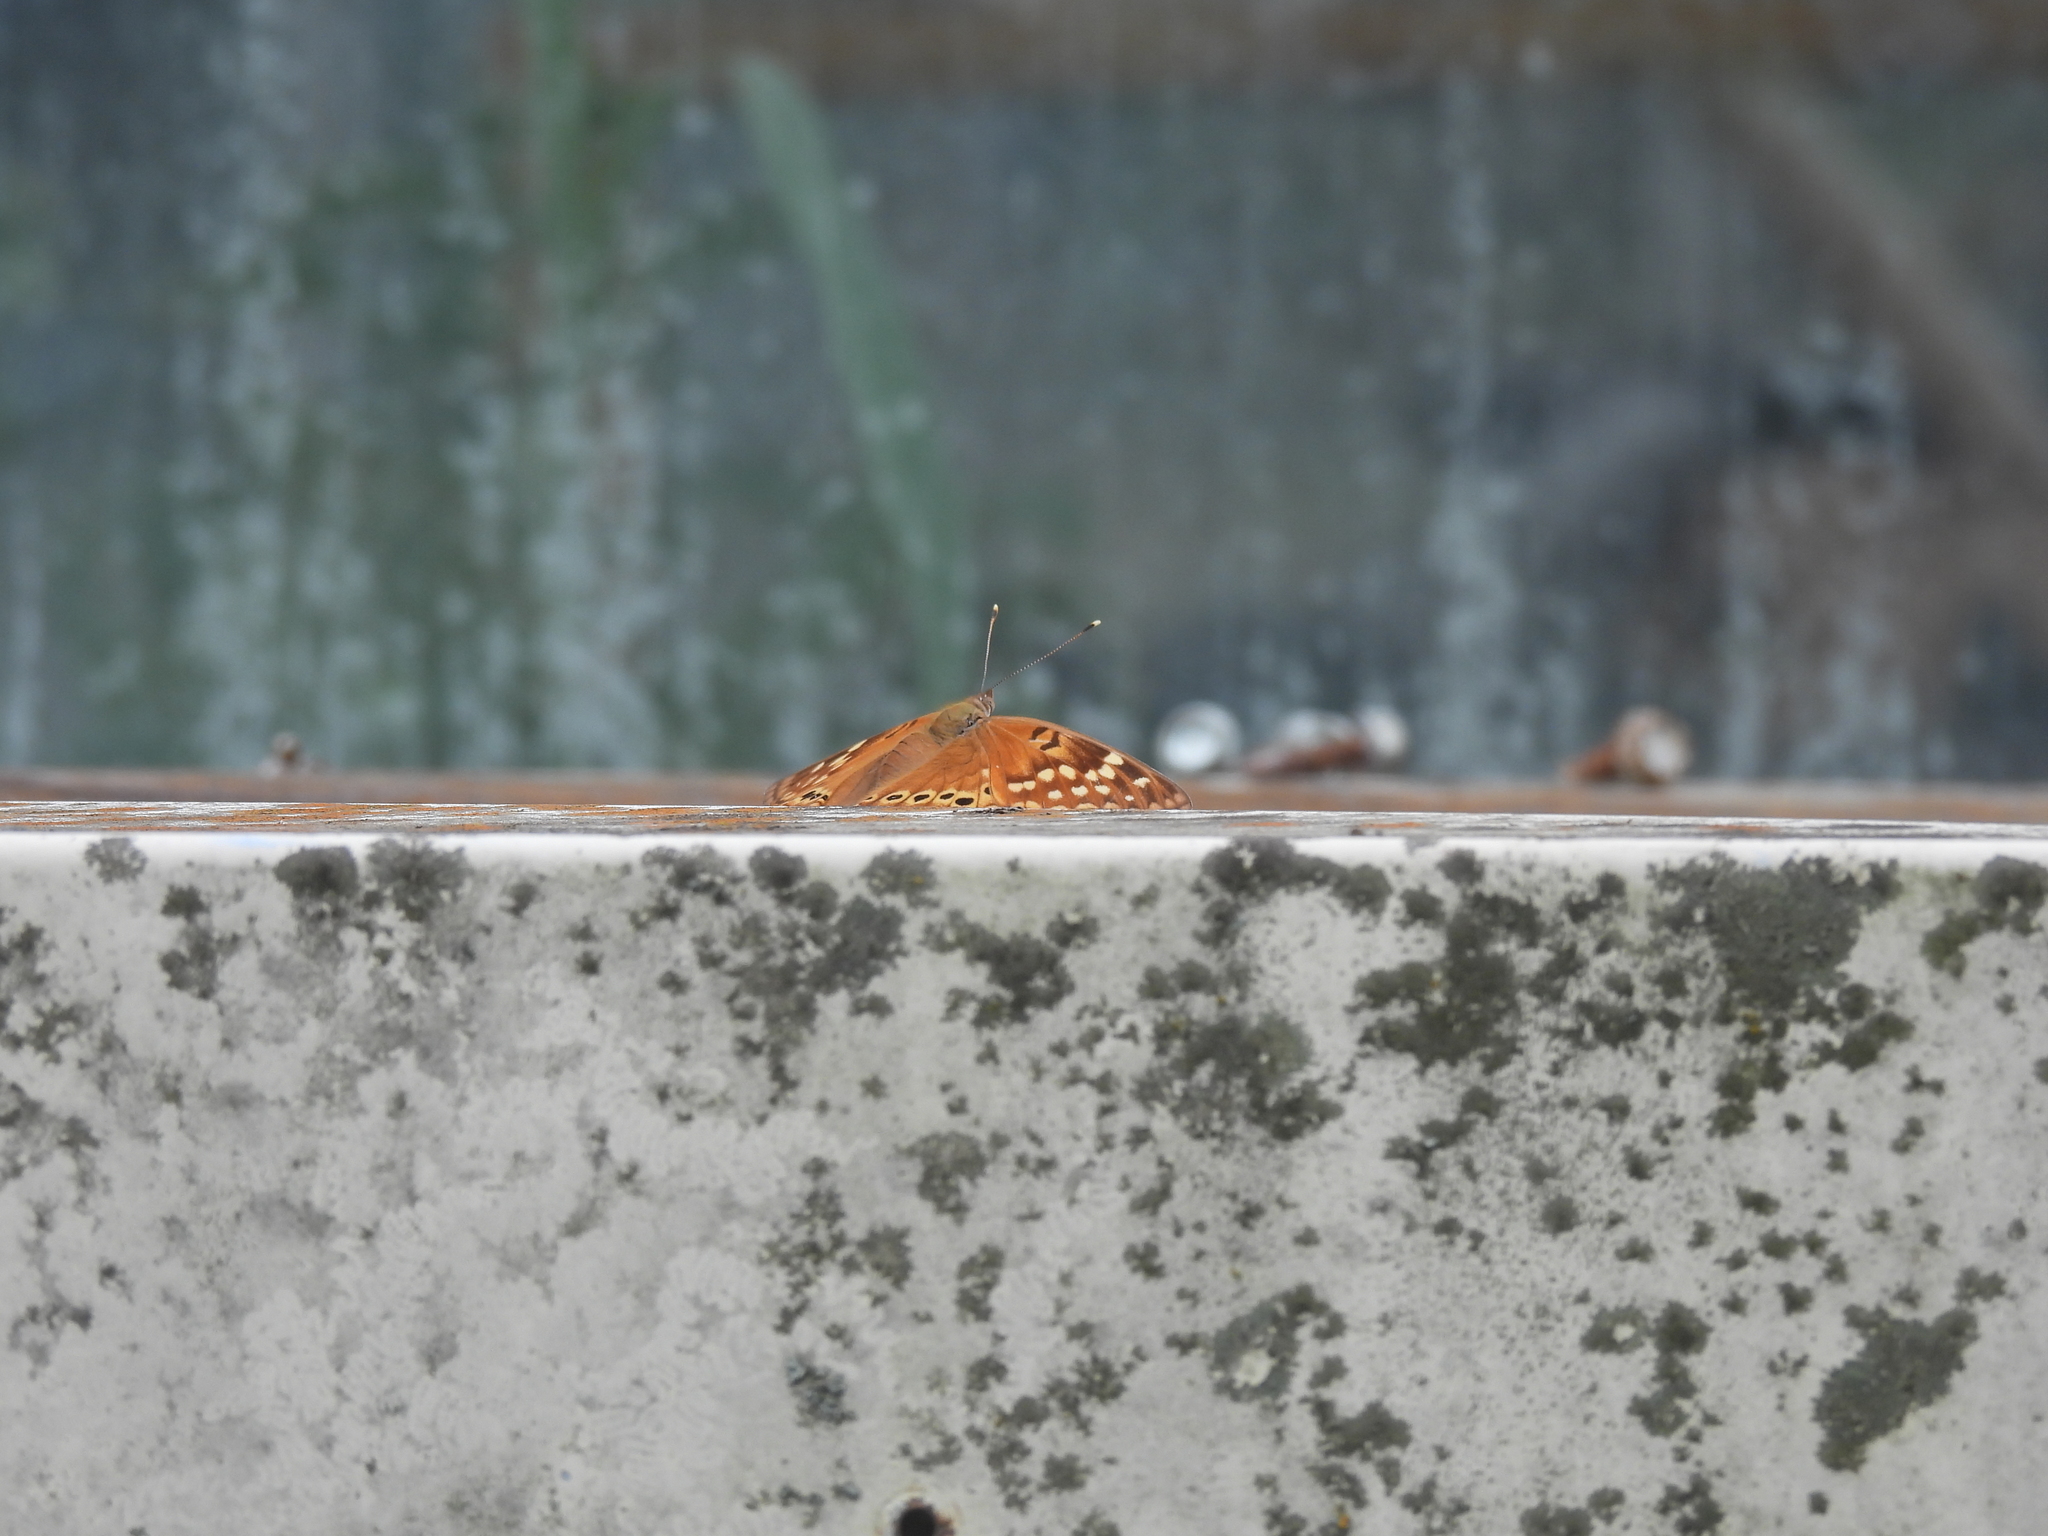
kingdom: Animalia
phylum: Arthropoda
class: Insecta
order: Lepidoptera
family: Nymphalidae
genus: Asterocampa
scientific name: Asterocampa clyton
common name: Tawny emperor
